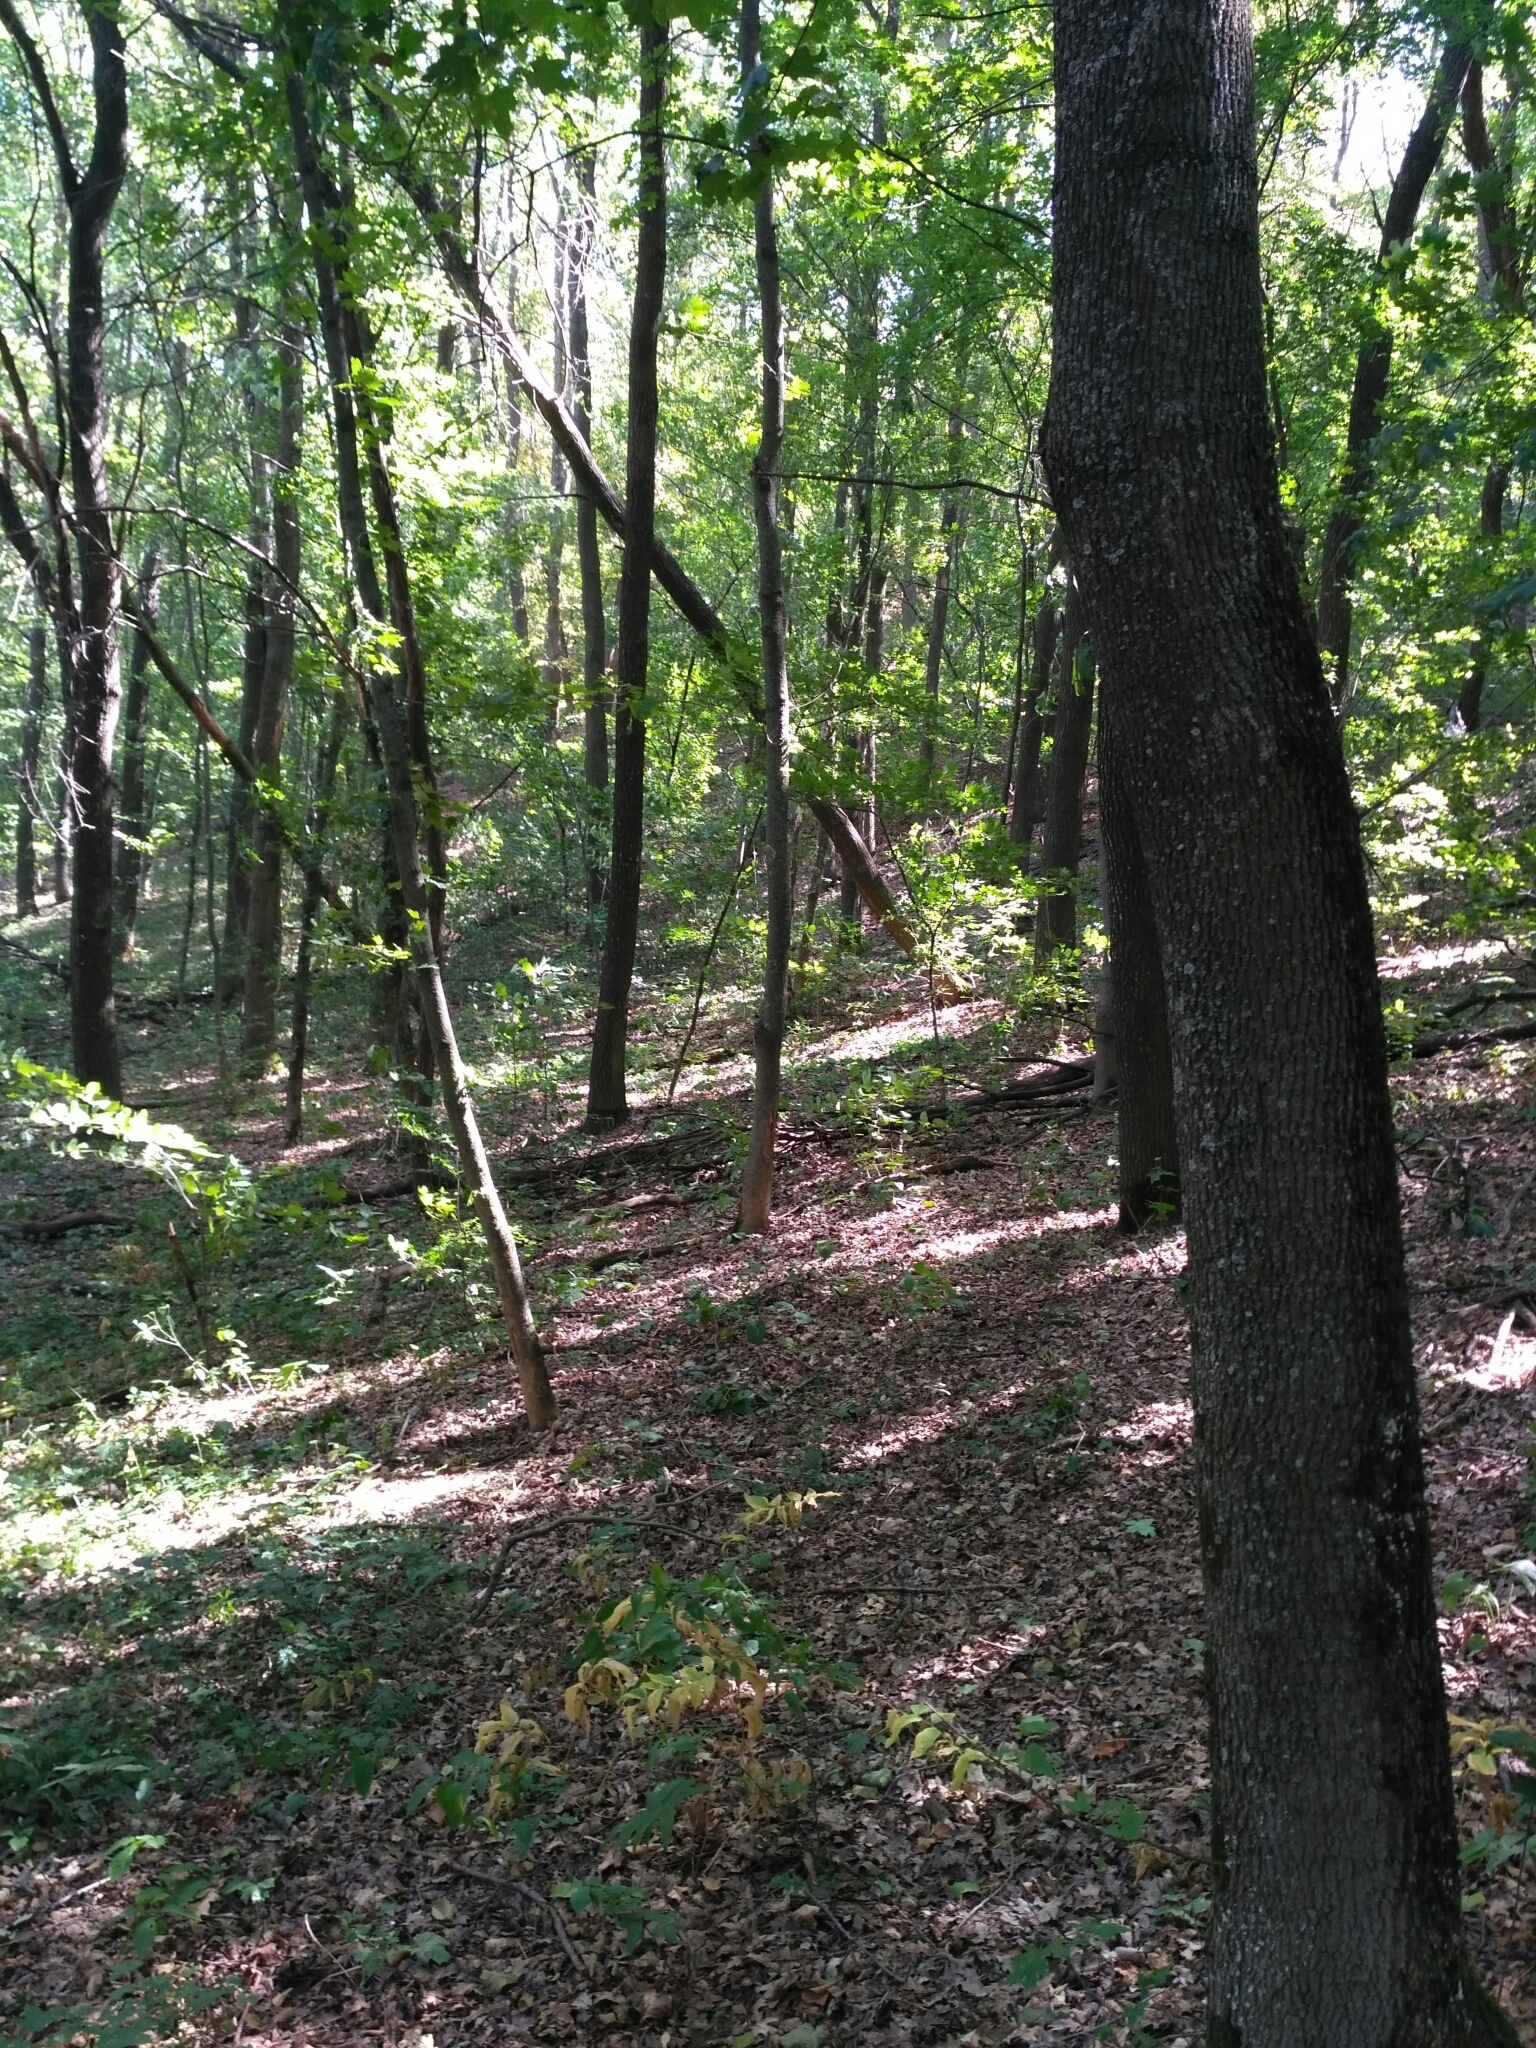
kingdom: Plantae
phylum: Tracheophyta
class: Magnoliopsida
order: Sapindales
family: Sapindaceae
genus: Acer
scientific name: Acer platanoides
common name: Norway maple
